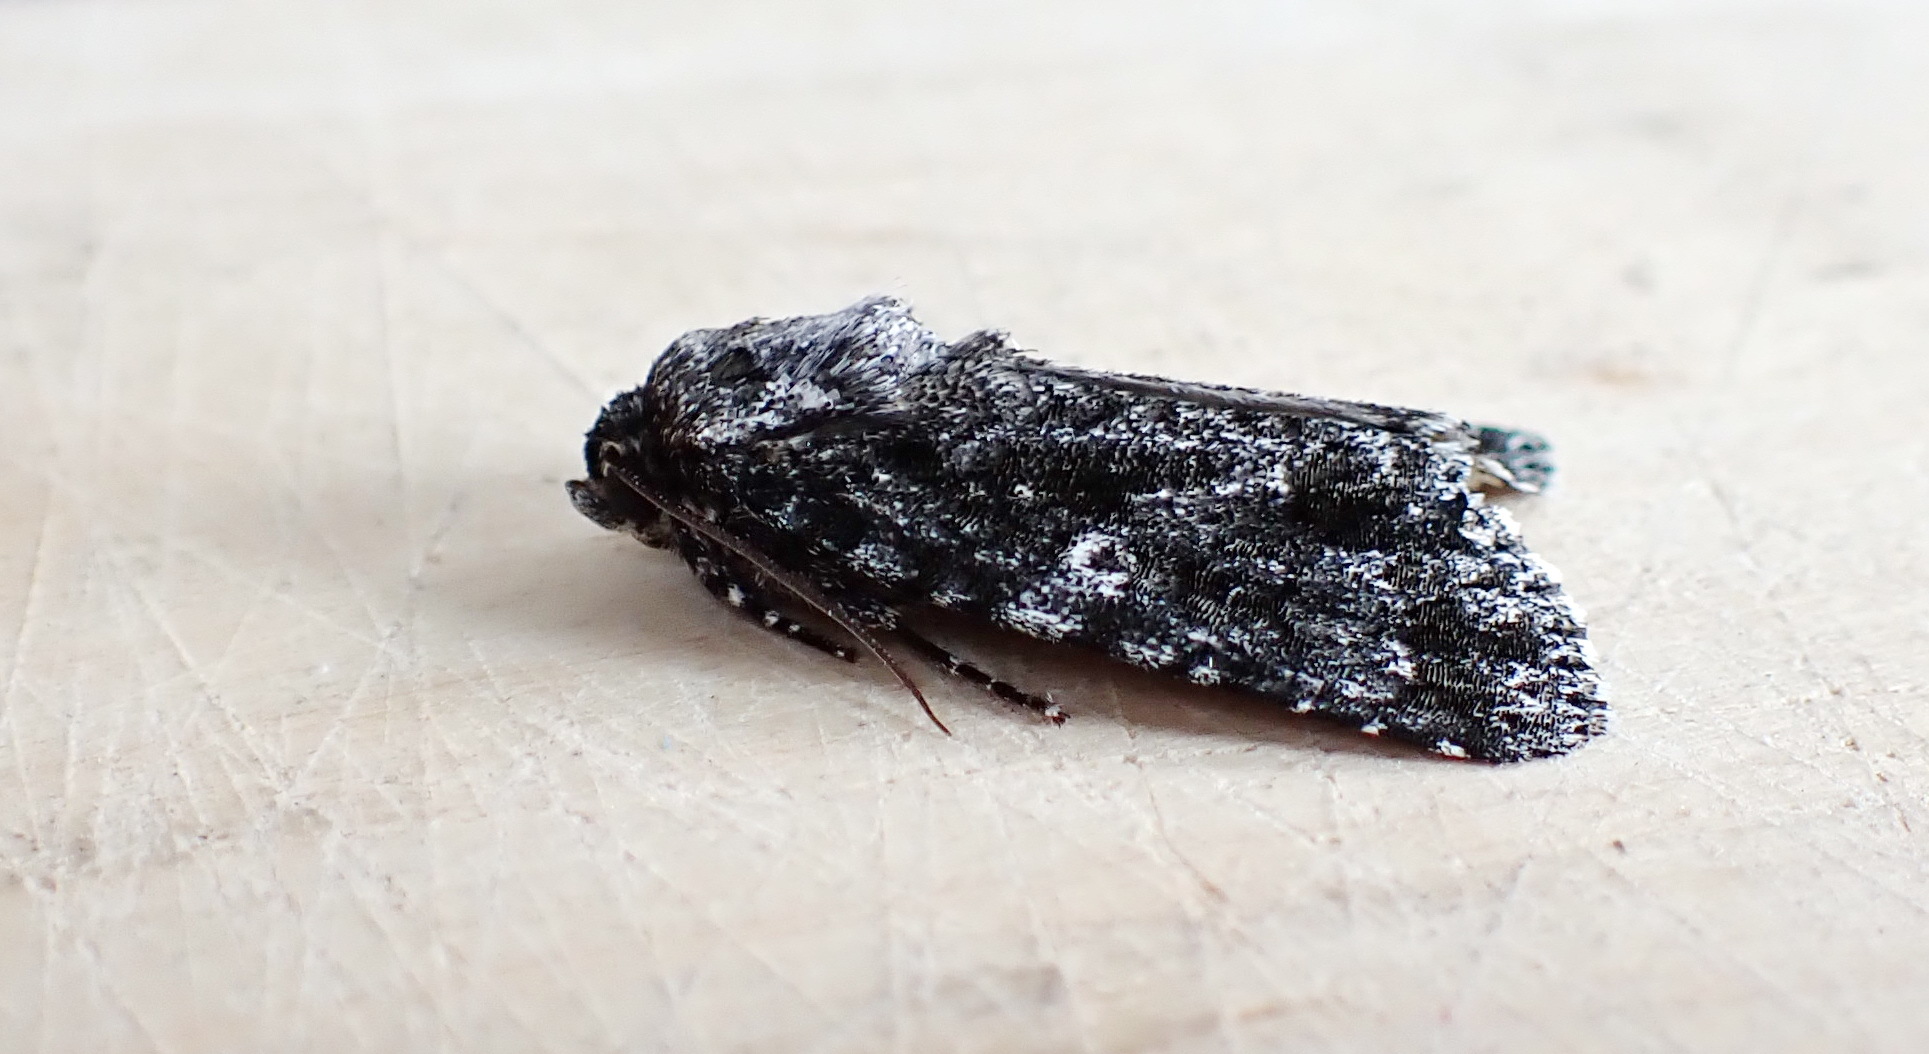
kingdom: Animalia
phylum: Arthropoda
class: Insecta
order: Lepidoptera
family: Noctuidae
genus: Acronicta
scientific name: Acronicta afflicta
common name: Afflicted dagger moth
